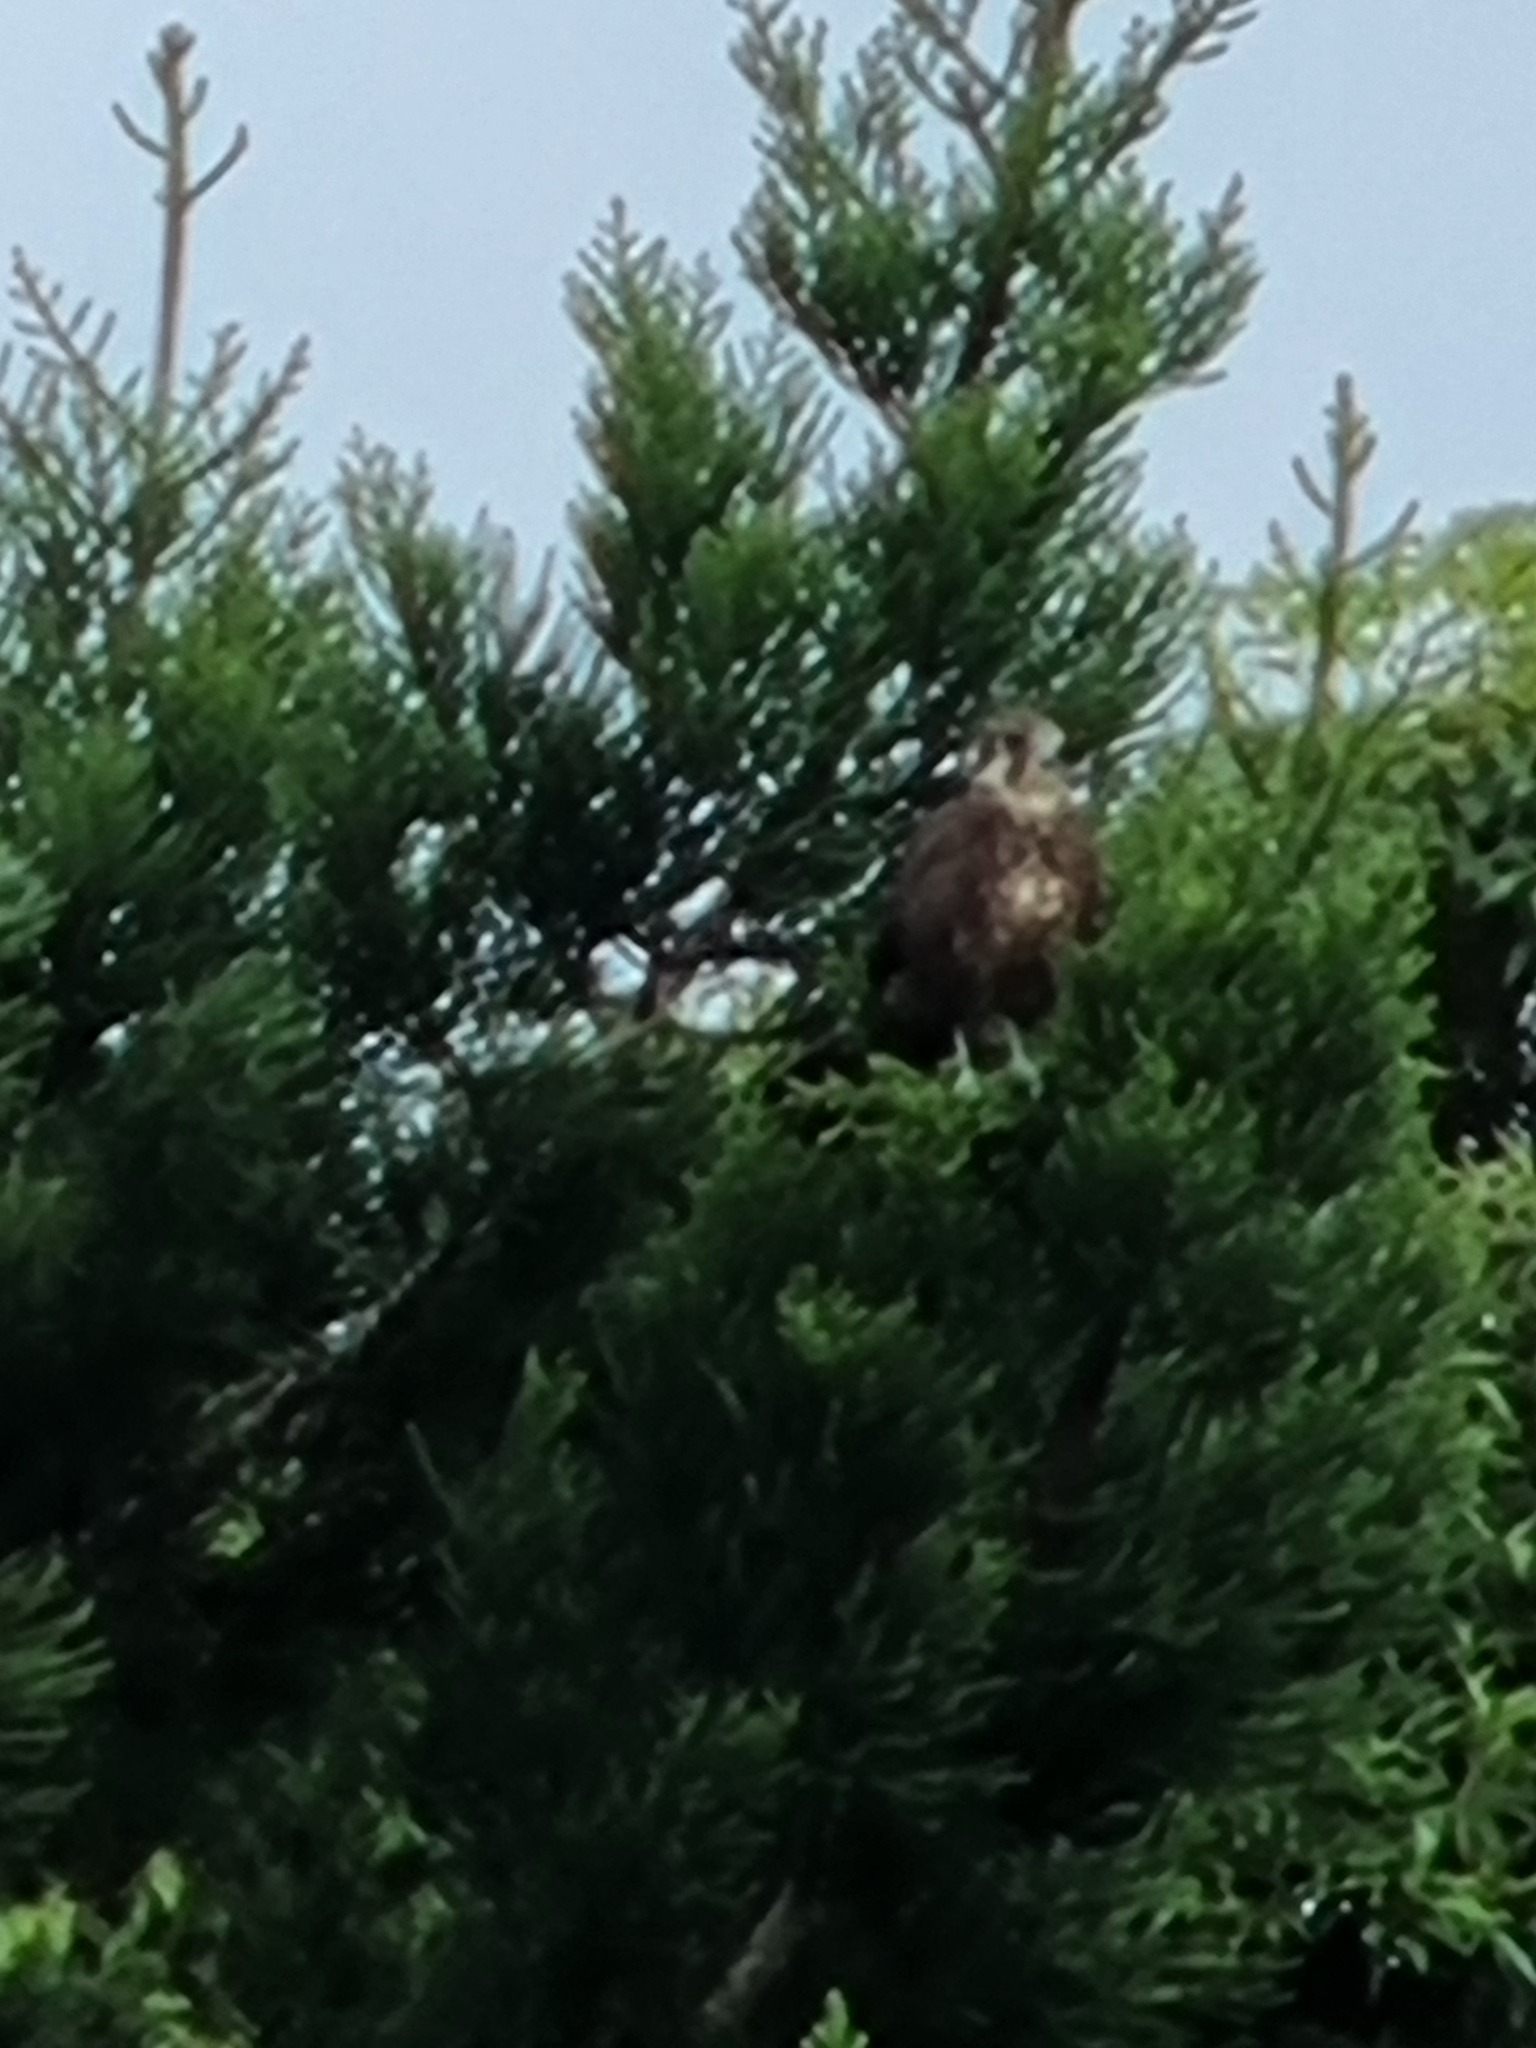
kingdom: Animalia
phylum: Chordata
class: Aves
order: Falconiformes
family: Falconidae
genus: Falco
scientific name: Falco berigora
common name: Brown falcon
